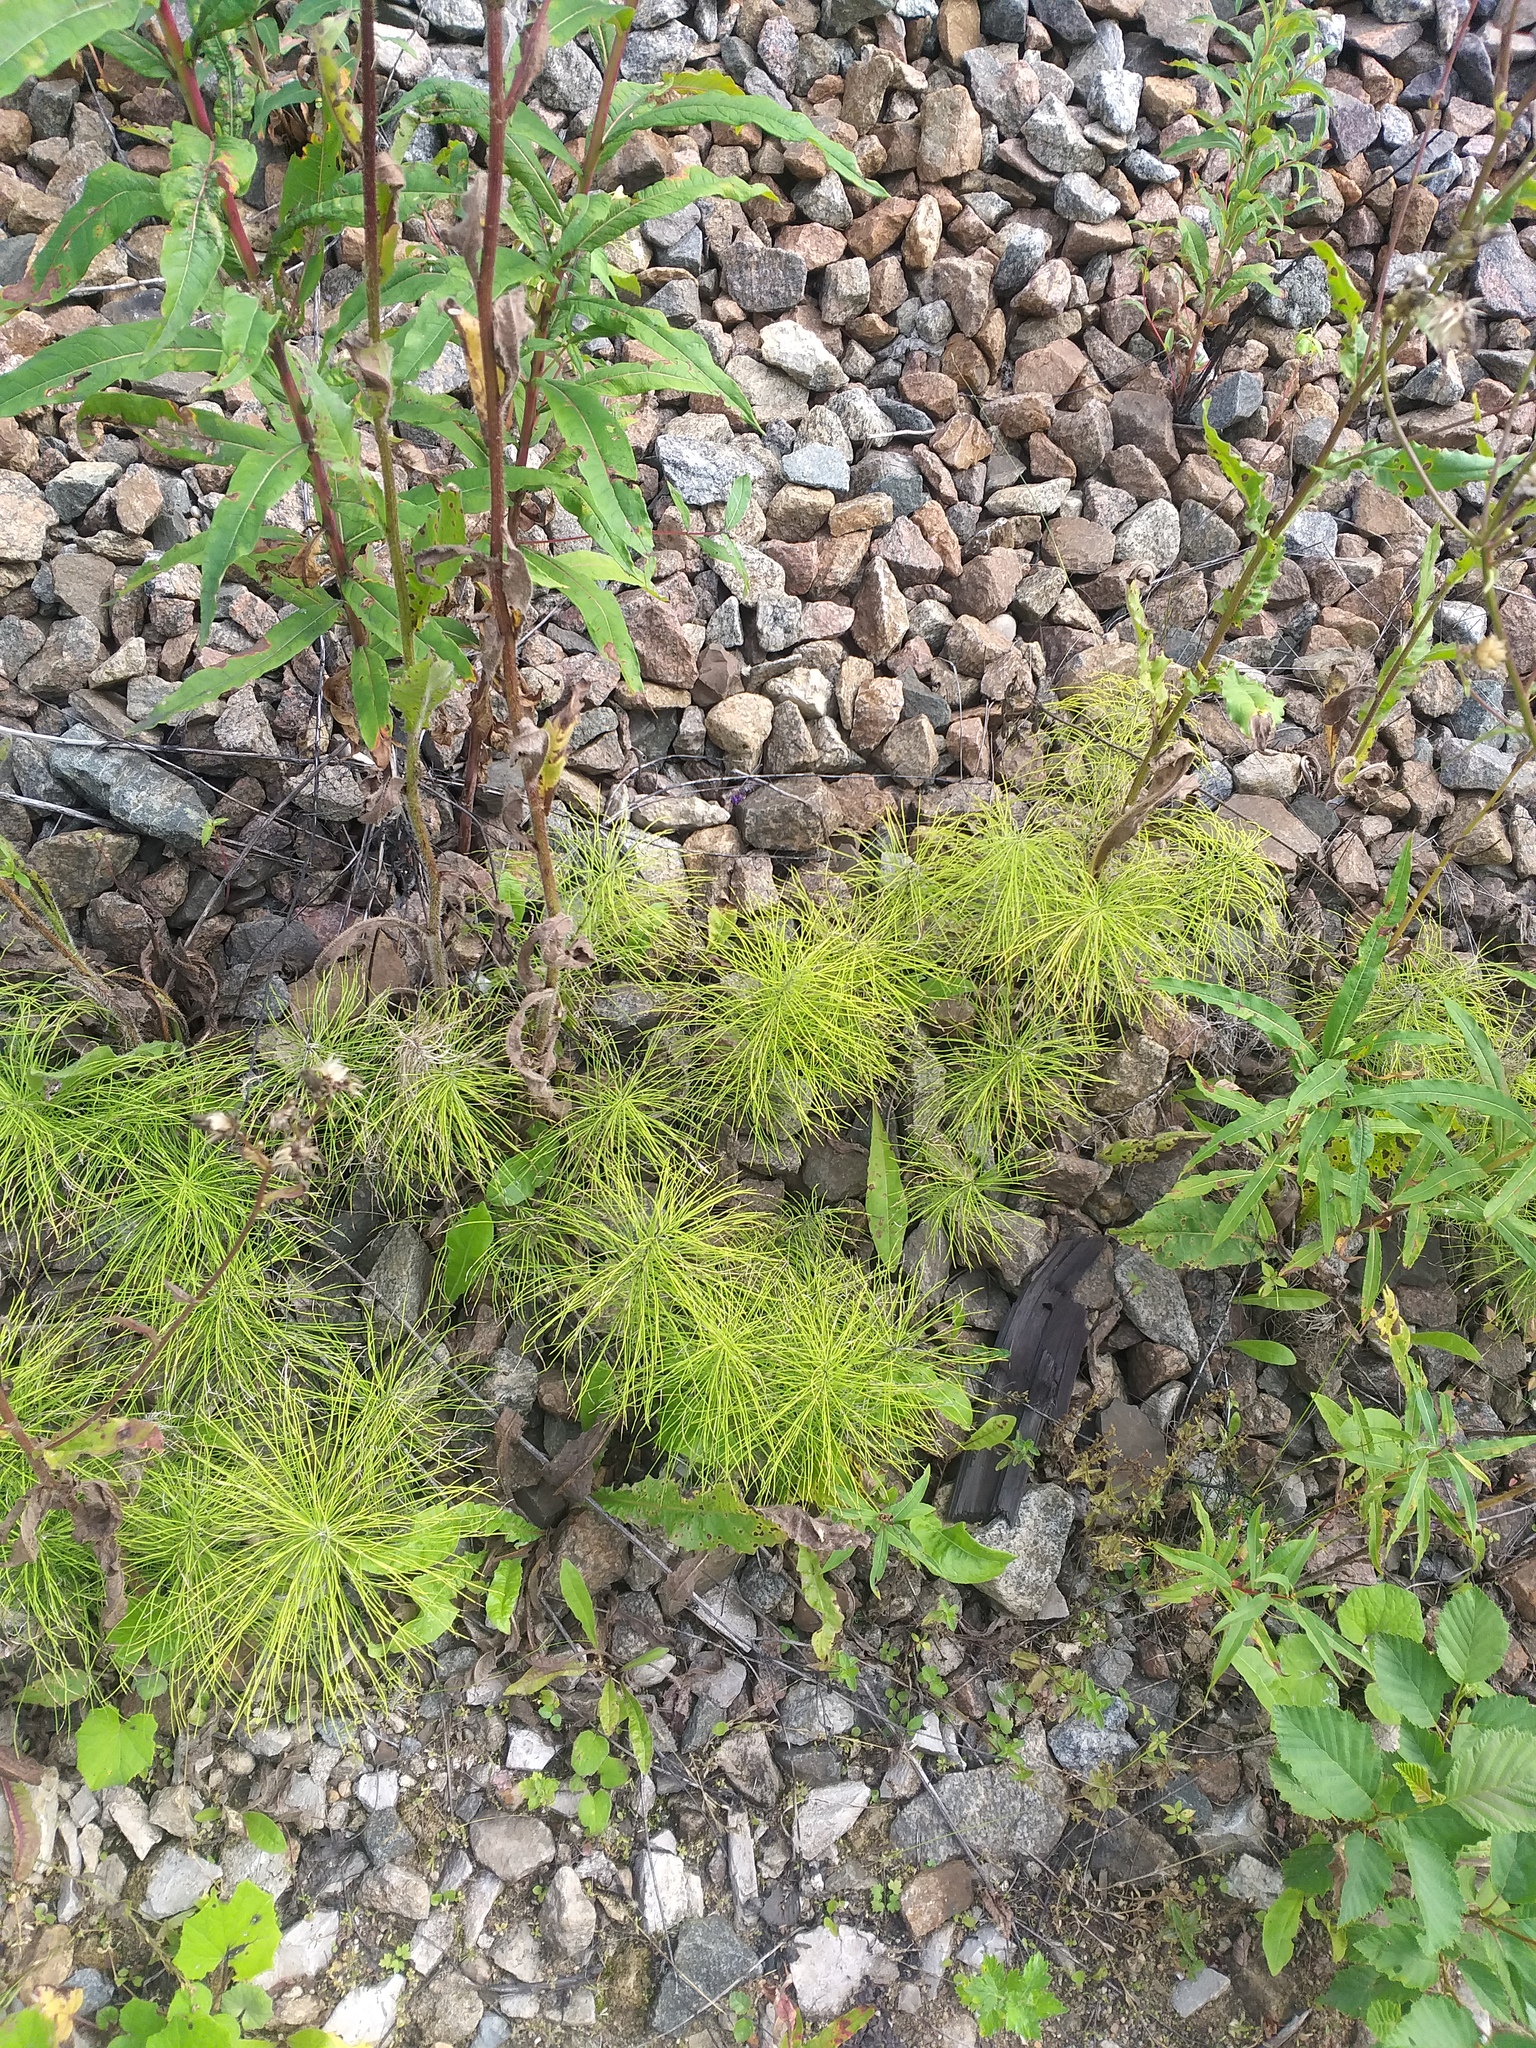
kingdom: Plantae
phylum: Tracheophyta
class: Polypodiopsida
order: Equisetales
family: Equisetaceae
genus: Equisetum
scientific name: Equisetum pratense
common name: Meadow horsetail
